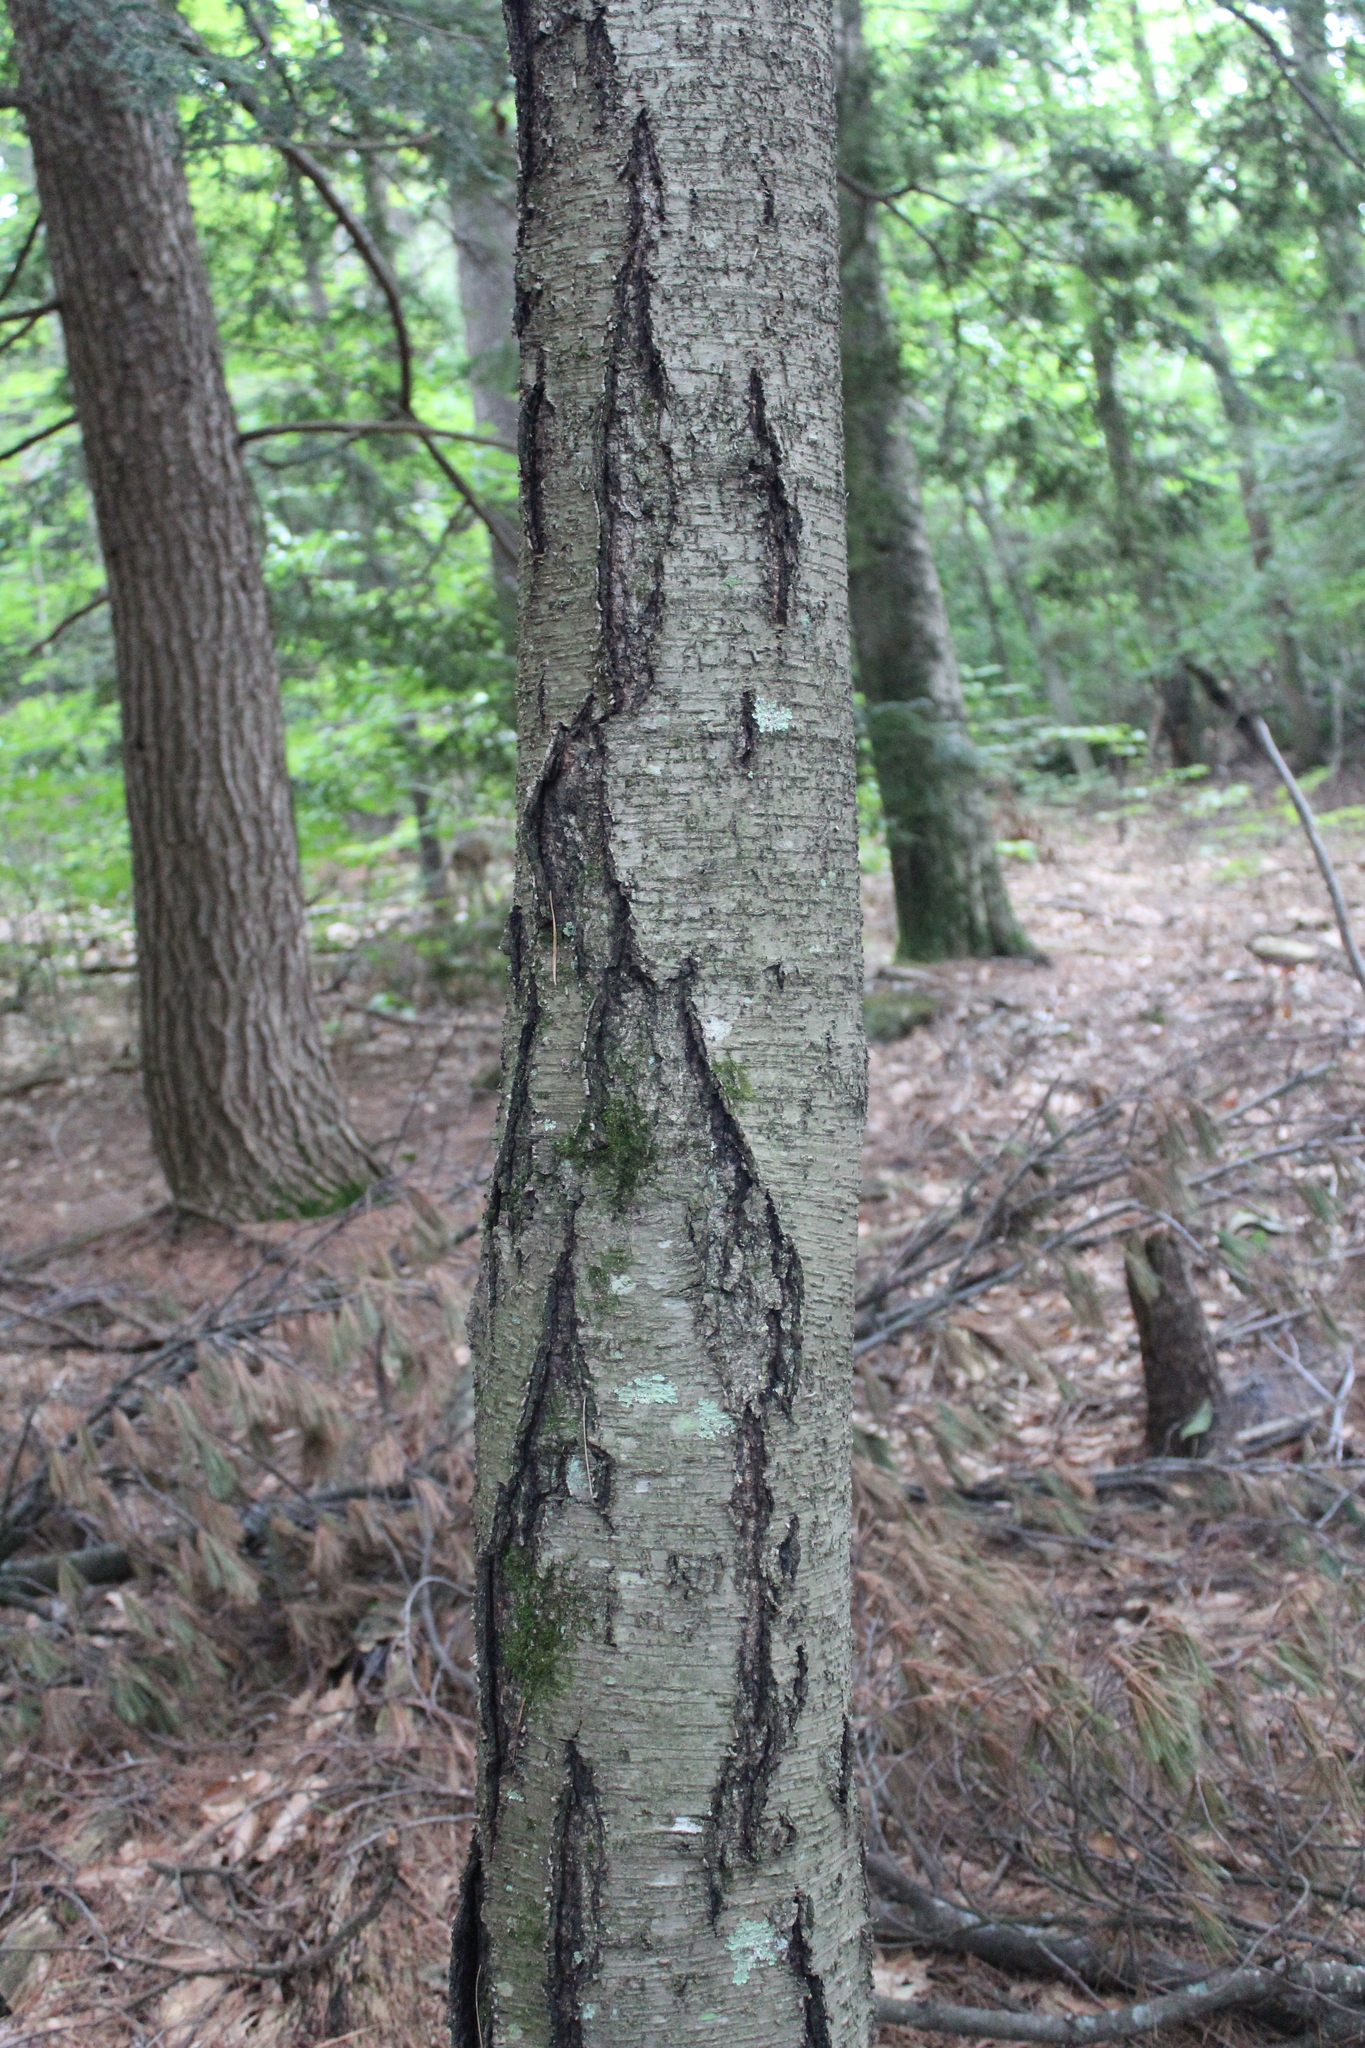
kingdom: Plantae
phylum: Tracheophyta
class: Magnoliopsida
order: Fagales
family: Betulaceae
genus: Betula
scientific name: Betula lenta
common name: Black birch
